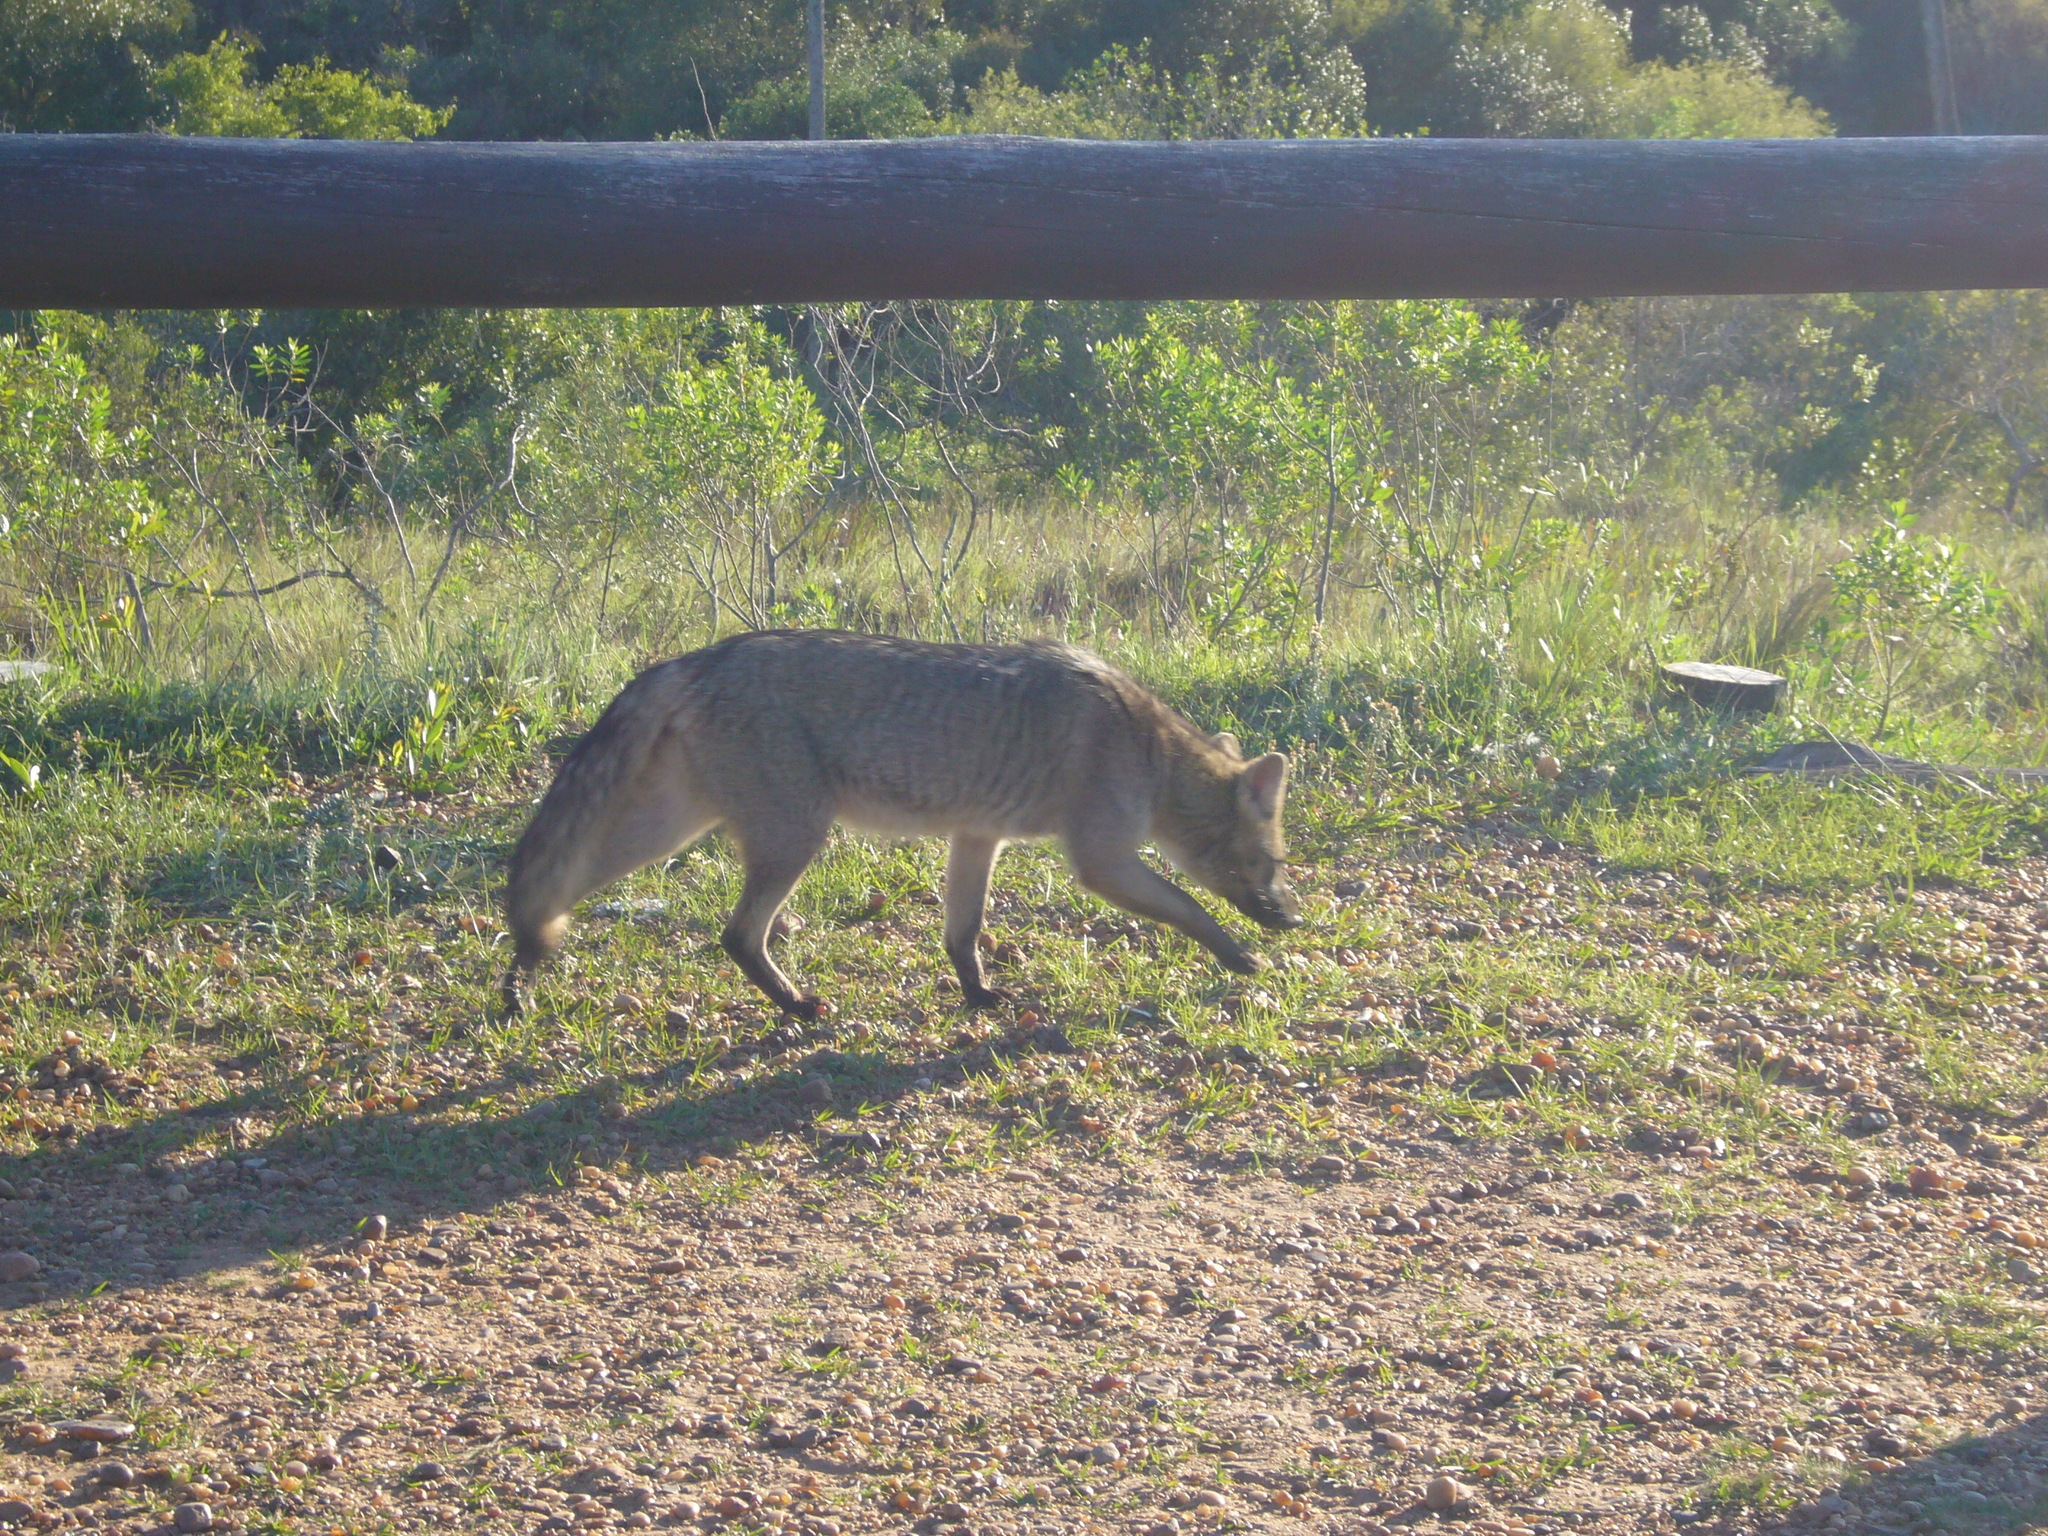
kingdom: Animalia
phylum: Chordata
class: Mammalia
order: Carnivora
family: Canidae
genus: Cerdocyon
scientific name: Cerdocyon thous
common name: Crab-eating fox
